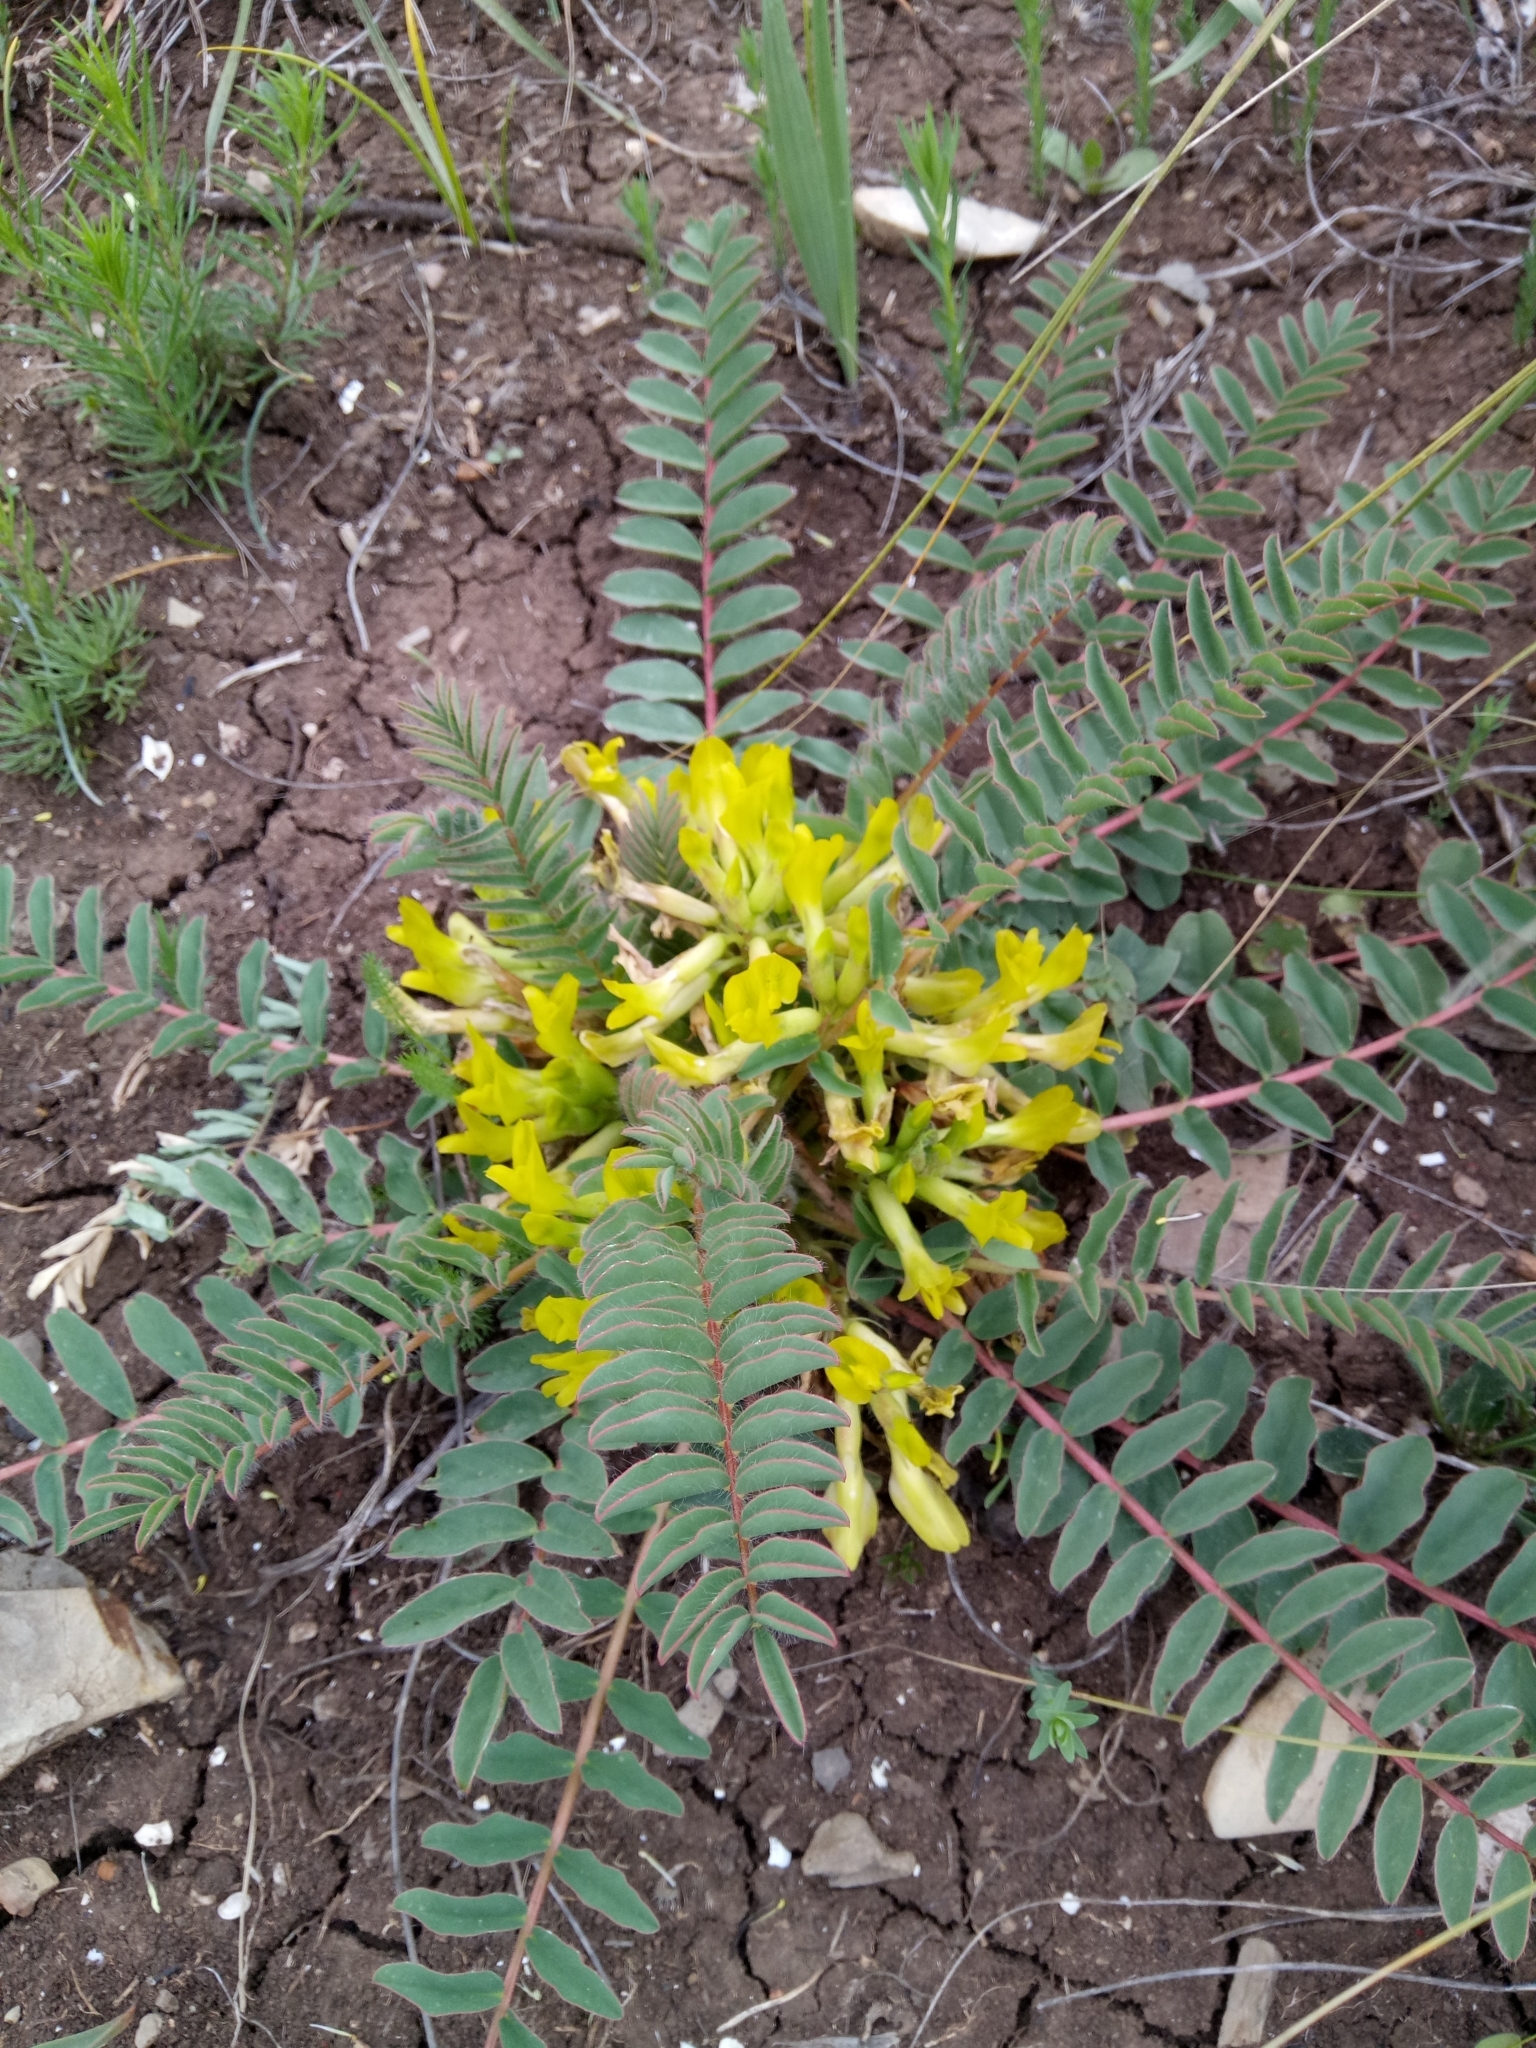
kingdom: Plantae
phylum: Tracheophyta
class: Magnoliopsida
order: Fabales
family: Fabaceae
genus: Astragalus
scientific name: Astragalus boreoafricanus
